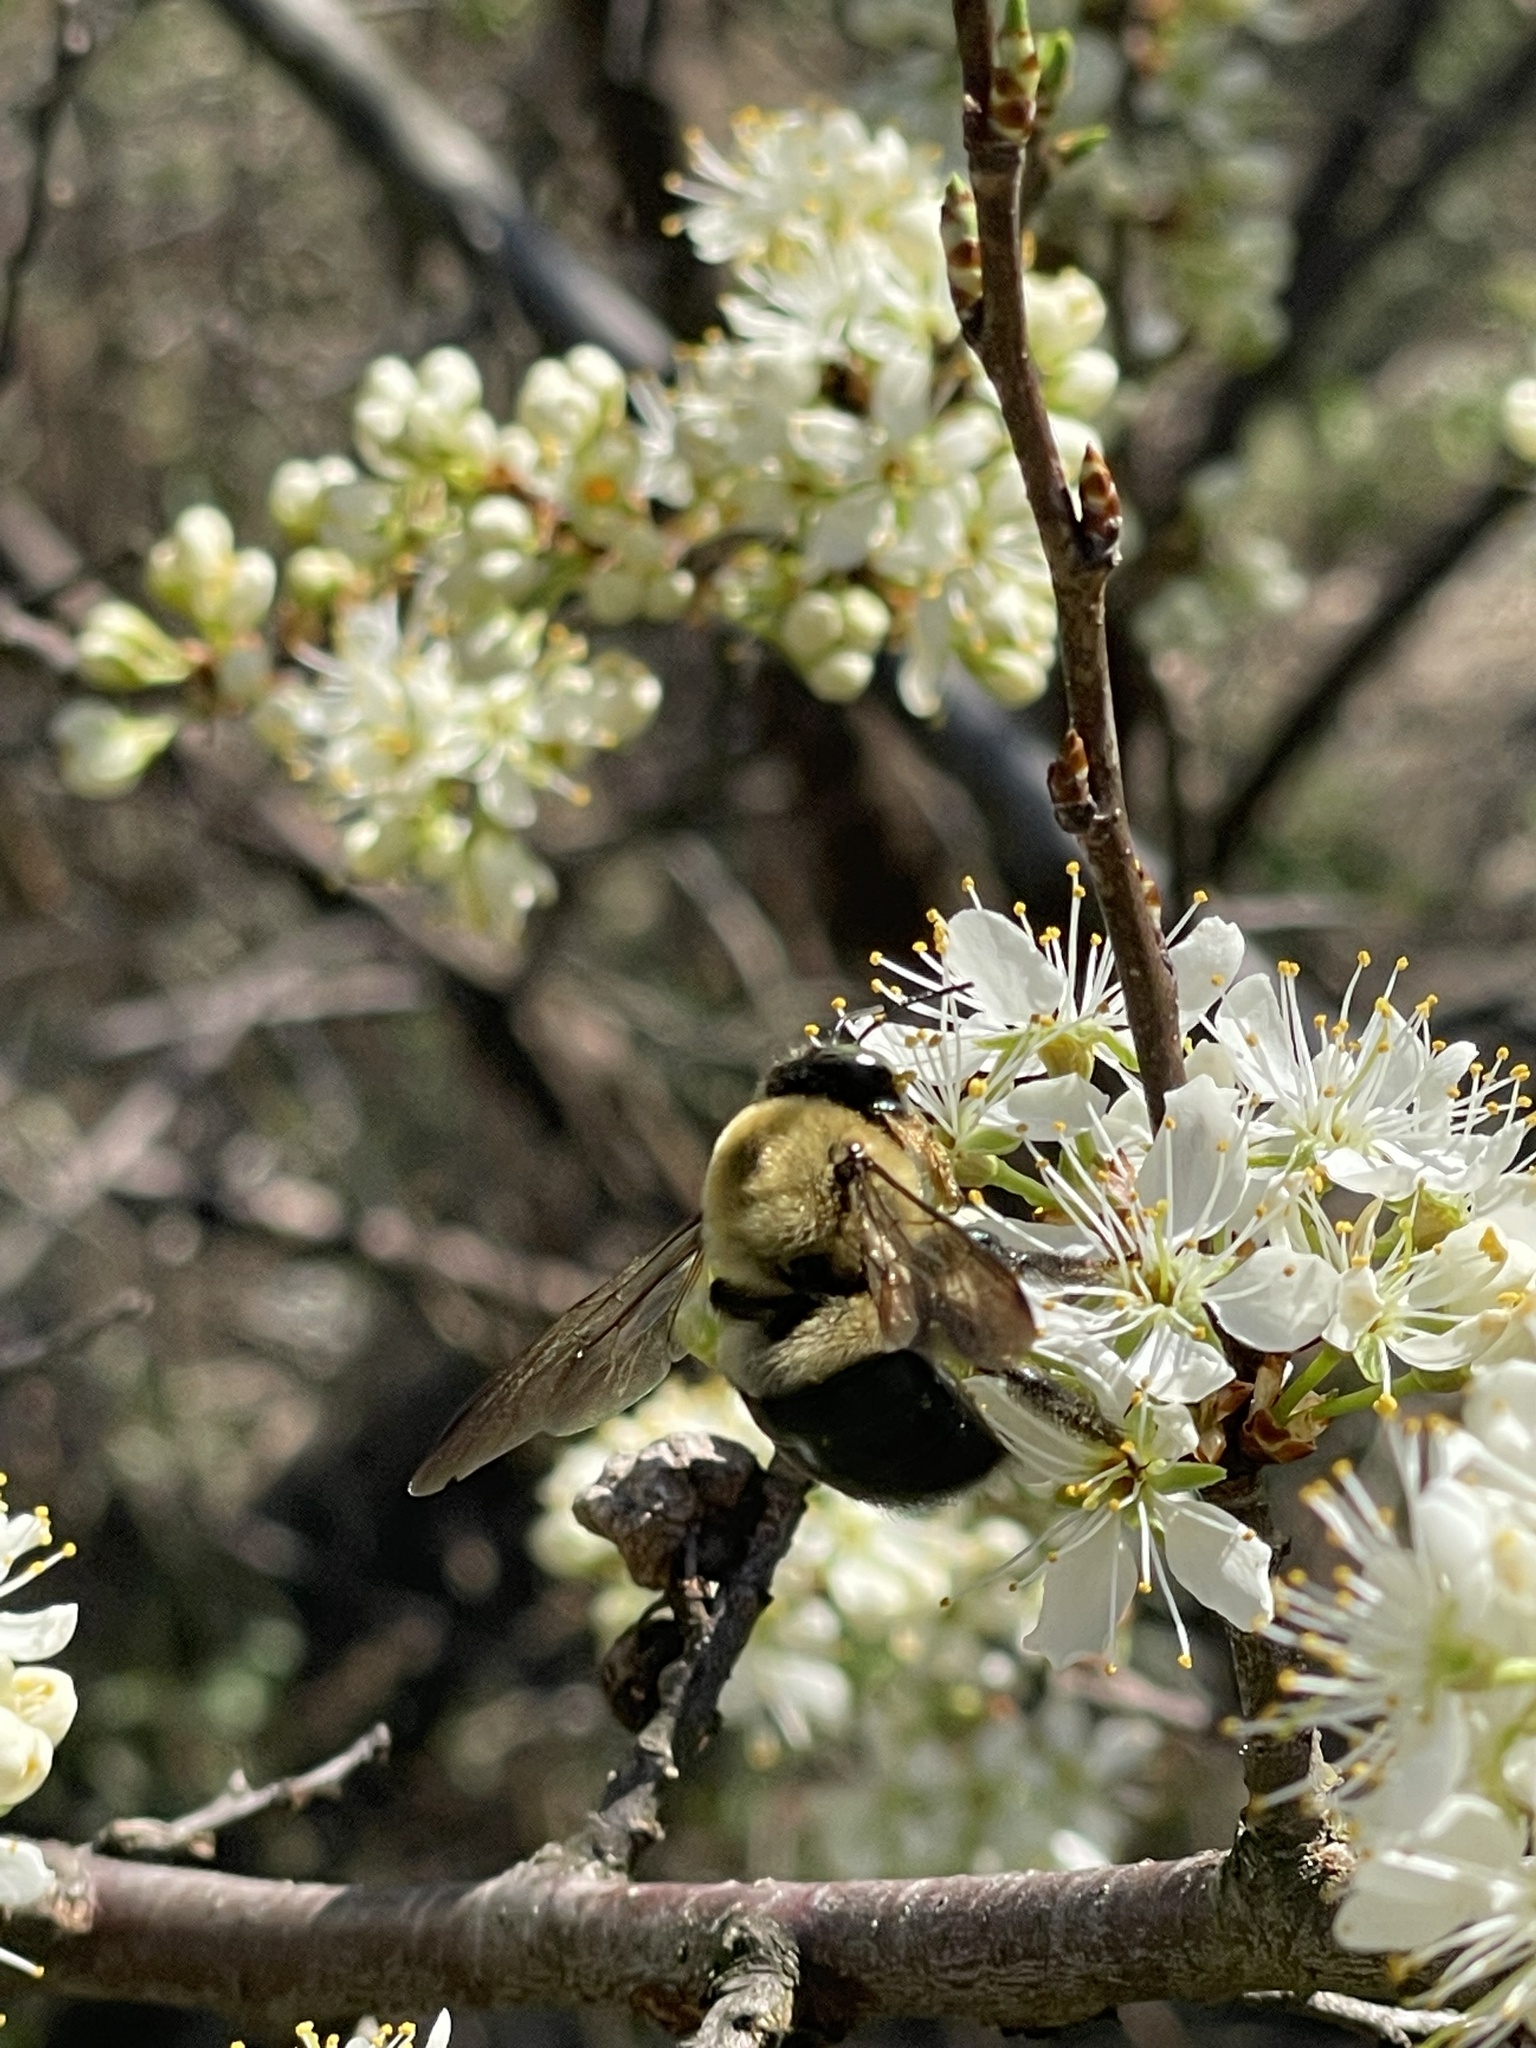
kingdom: Animalia
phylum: Arthropoda
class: Insecta
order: Hymenoptera
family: Apidae
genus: Xylocopa
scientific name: Xylocopa virginica
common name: Carpenter bee
